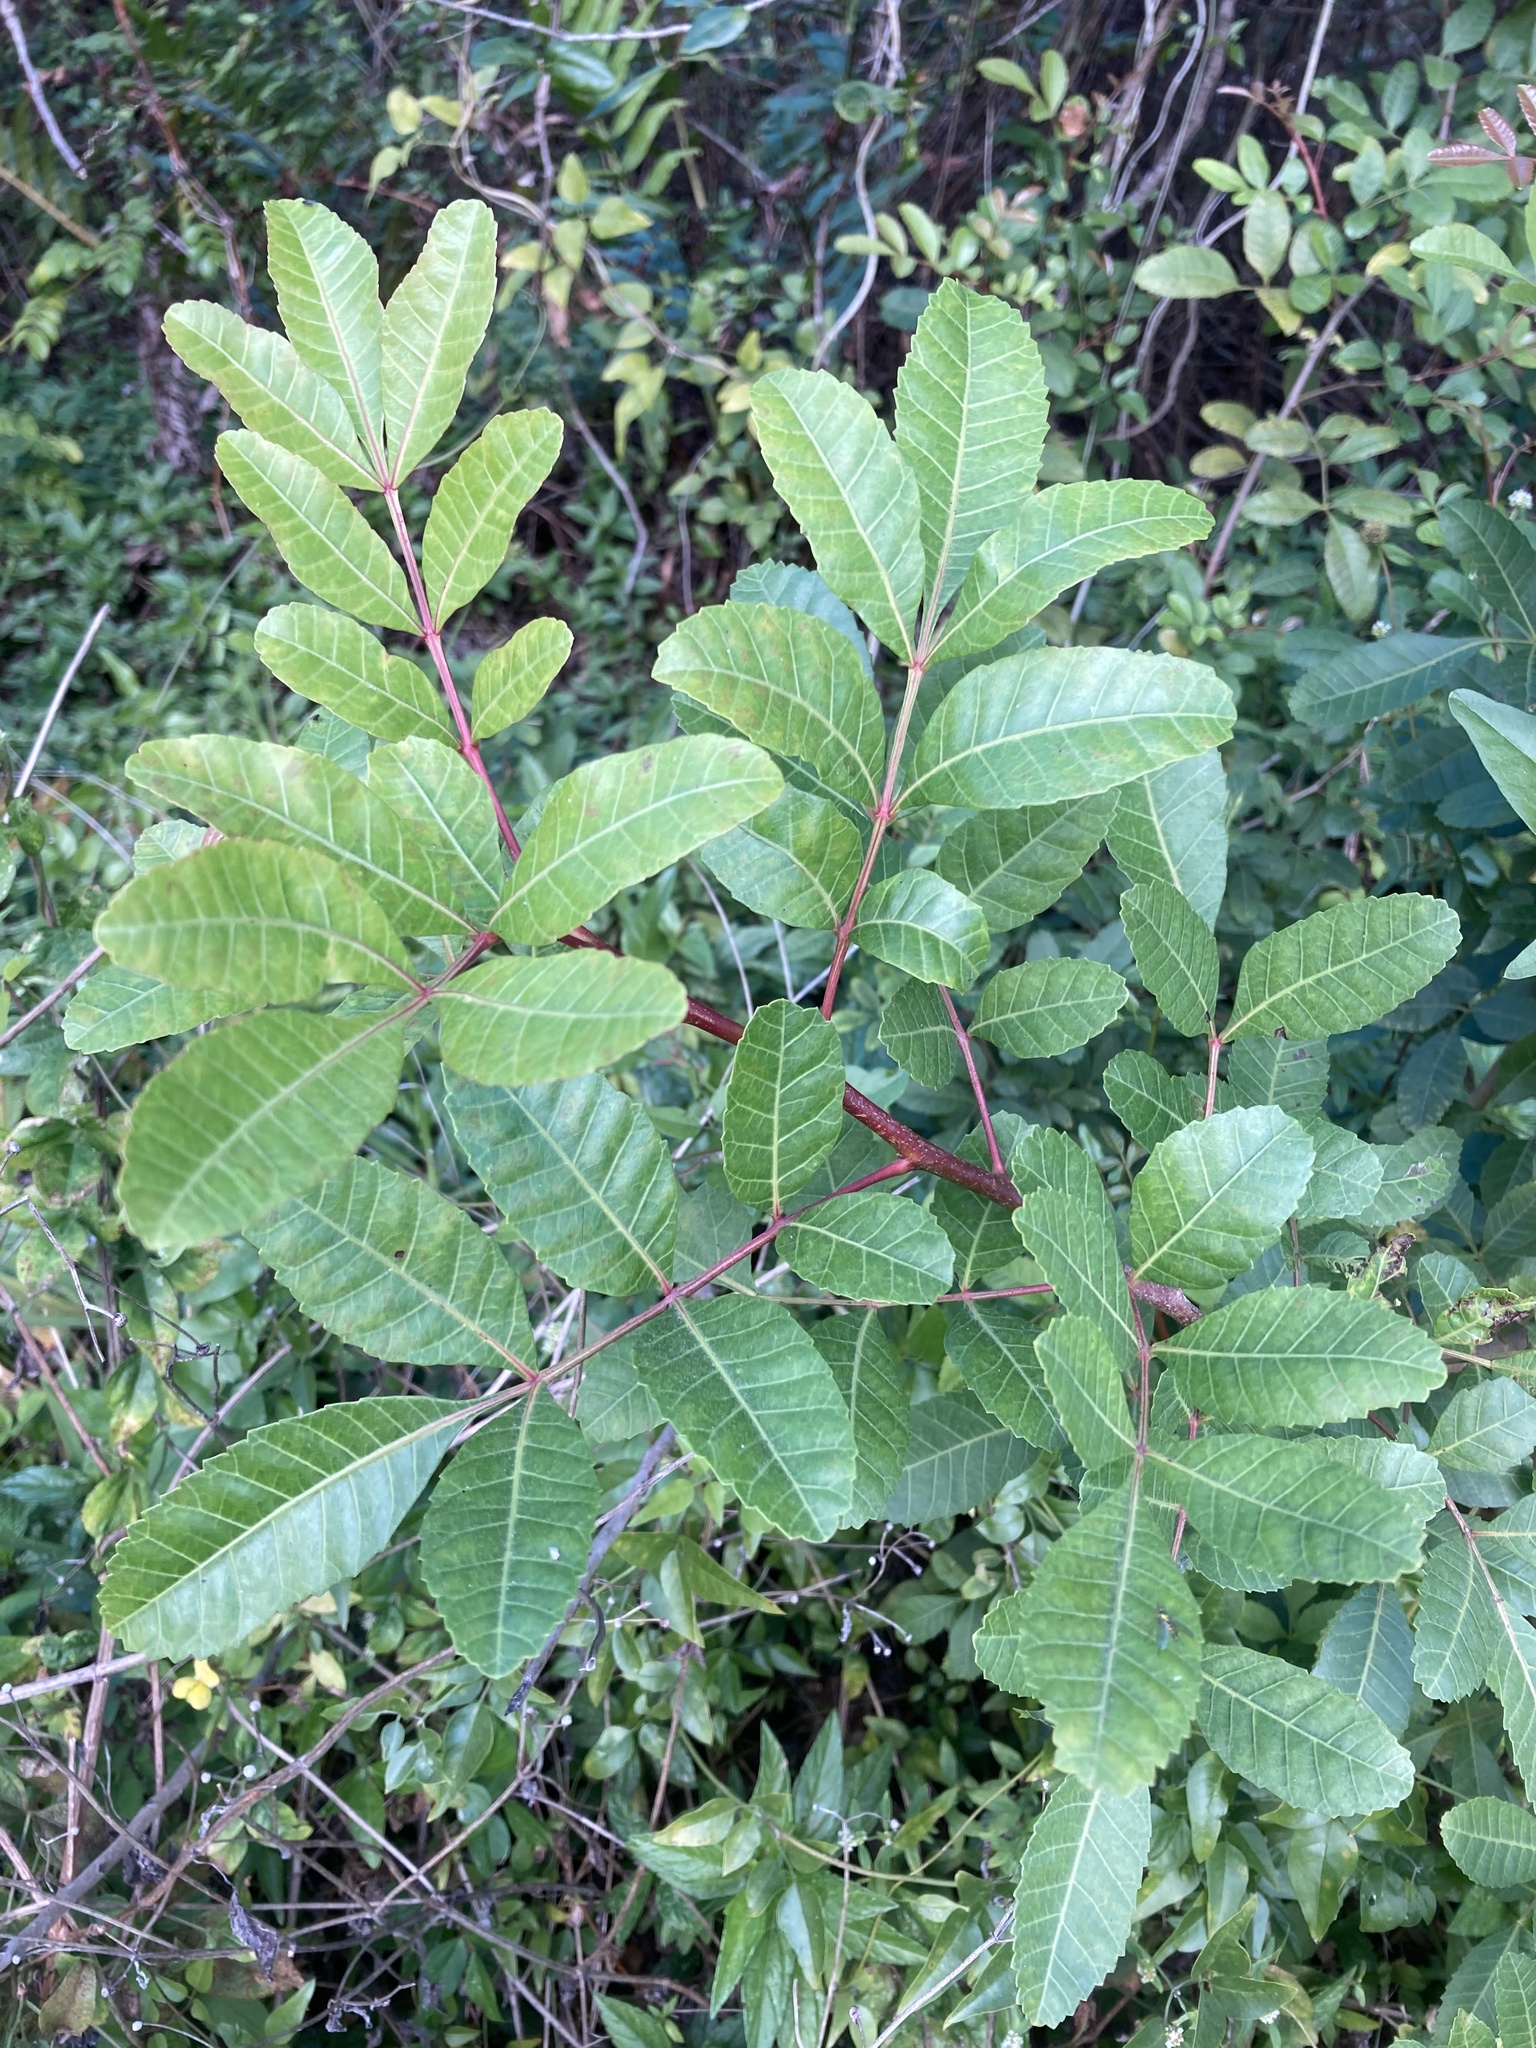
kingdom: Plantae
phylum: Tracheophyta
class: Magnoliopsida
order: Sapindales
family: Anacardiaceae
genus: Schinus
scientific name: Schinus terebinthifolia
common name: Brazilian peppertree
